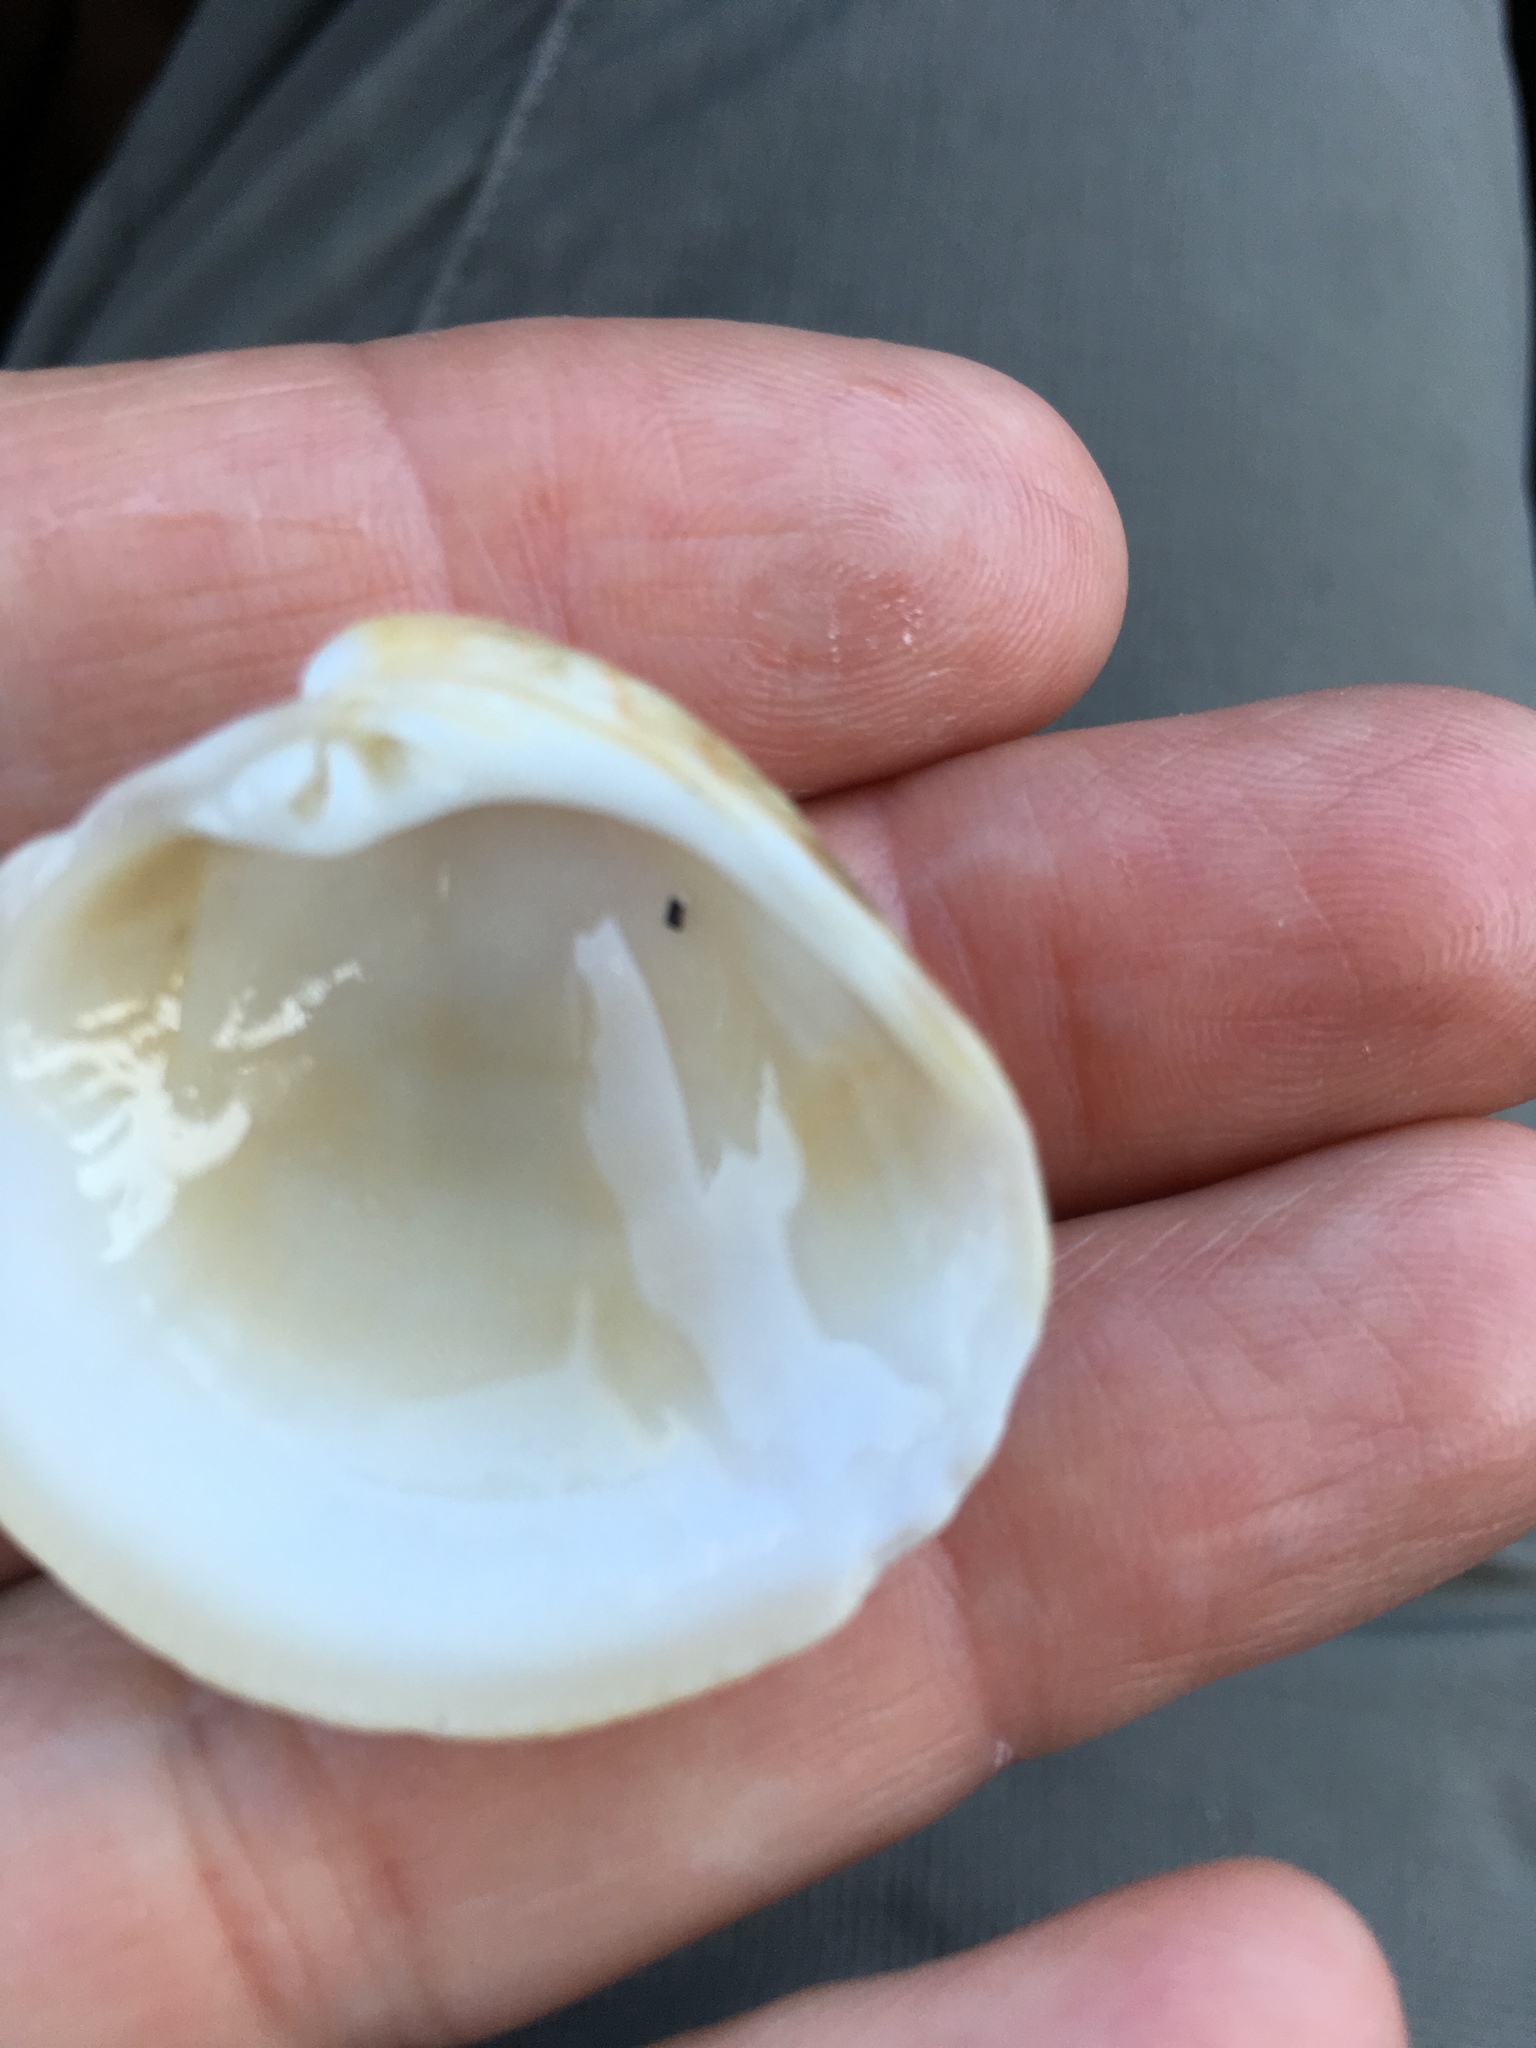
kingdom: Animalia
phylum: Mollusca
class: Bivalvia
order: Venerida
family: Veneridae
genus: Chionopsis
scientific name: Chionopsis intapurpurea
